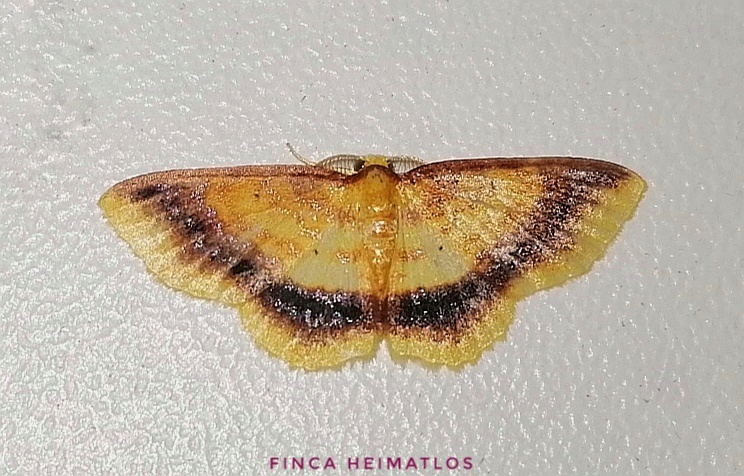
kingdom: Animalia
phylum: Arthropoda
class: Insecta
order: Lepidoptera
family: Geometridae
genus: Eois
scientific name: Eois fasciata
